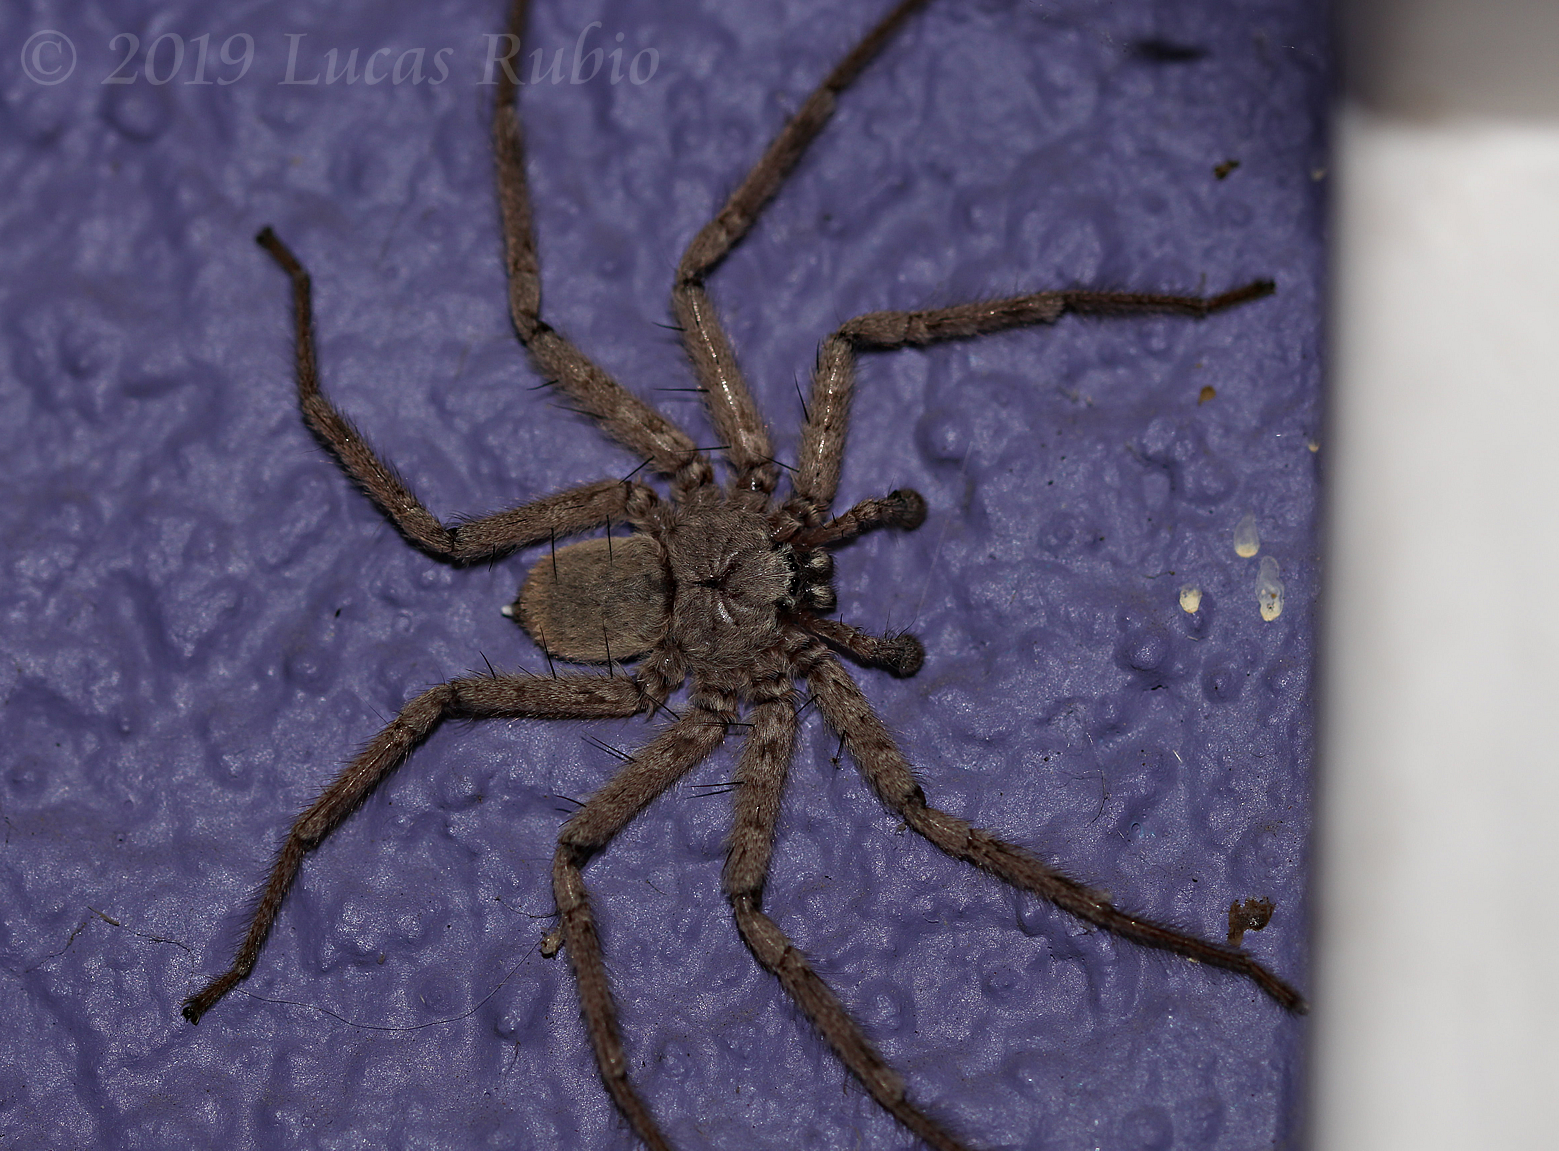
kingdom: Animalia
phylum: Arthropoda
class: Arachnida
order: Araneae
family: Selenopidae
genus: Selenops
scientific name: Selenops
